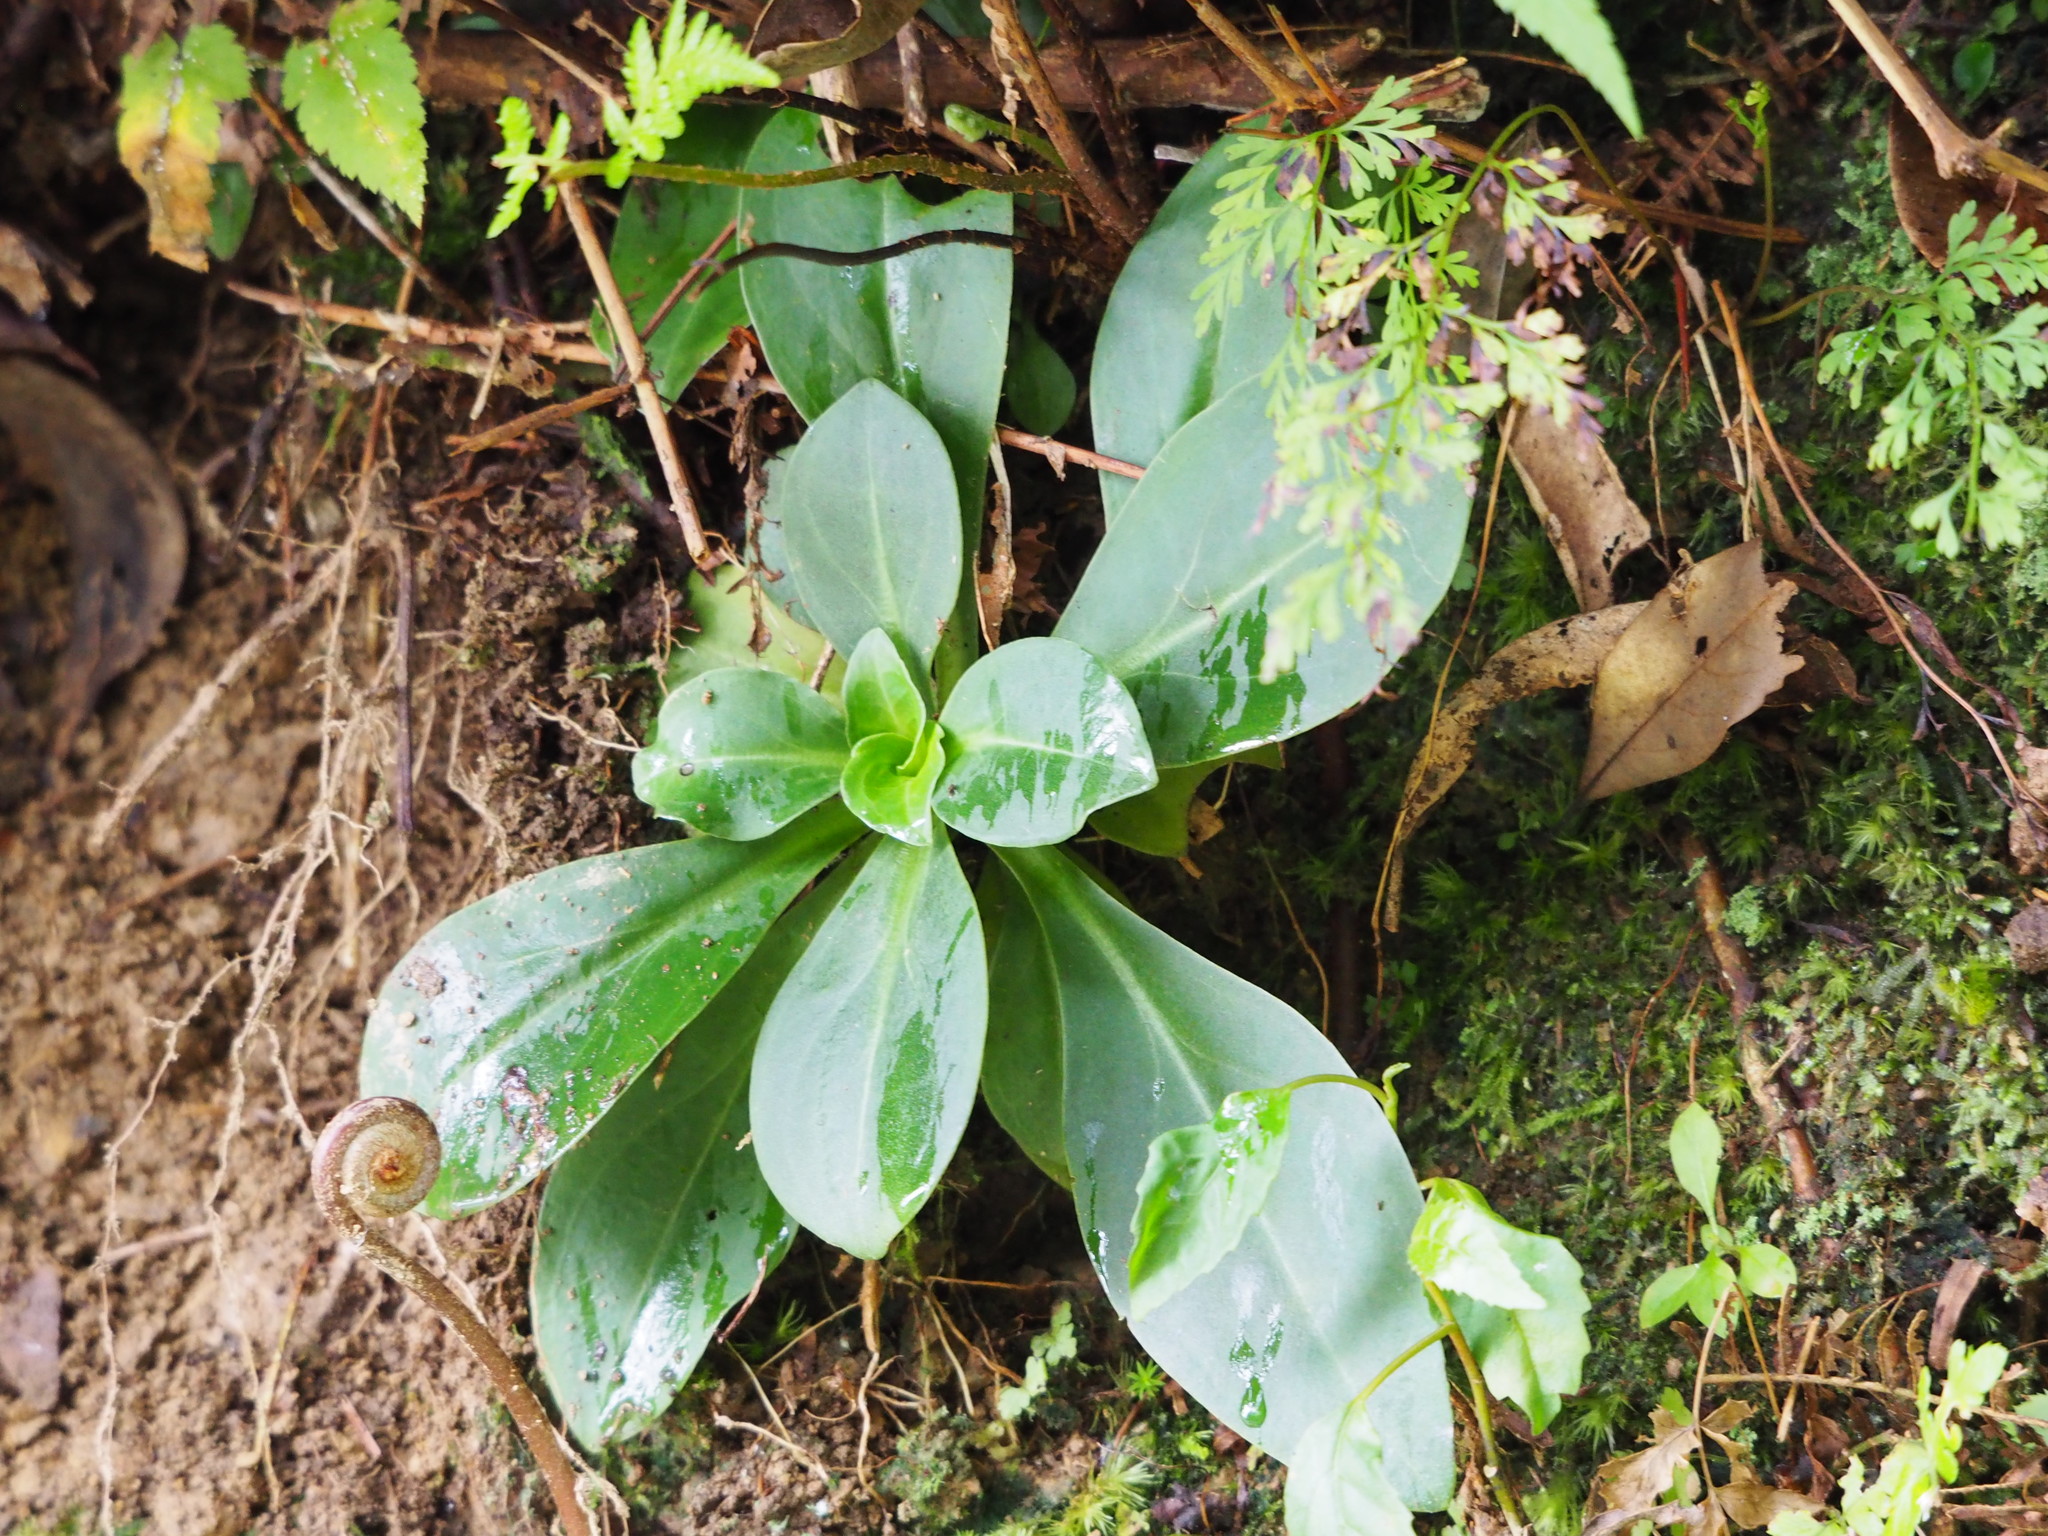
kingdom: Plantae
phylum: Tracheophyta
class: Magnoliopsida
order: Gentianales
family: Gentianaceae
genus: Swertia
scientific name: Swertia shintenensis
